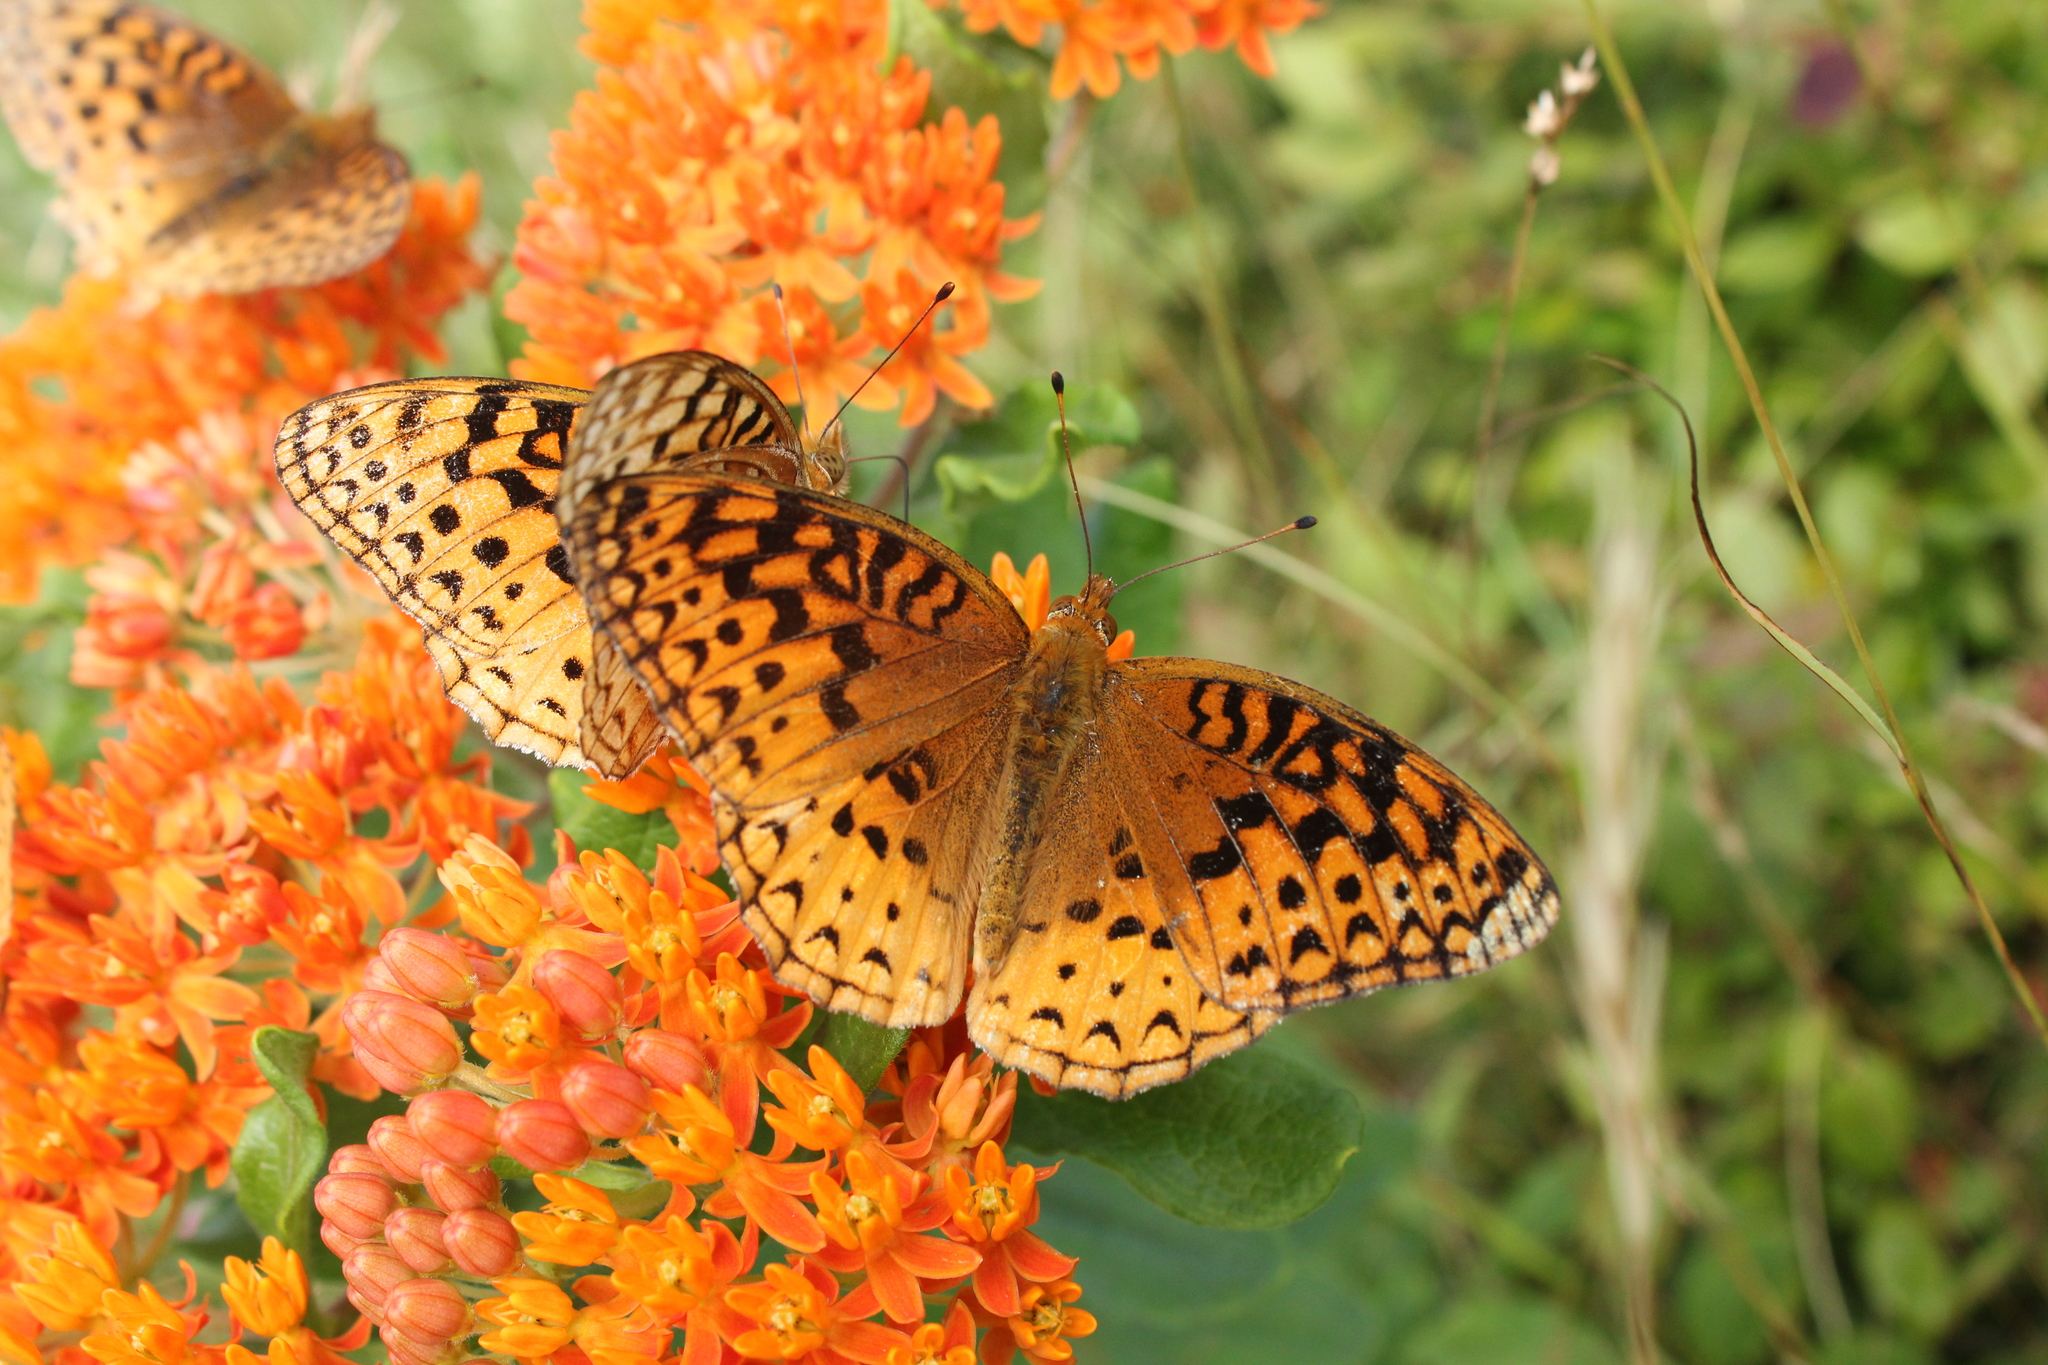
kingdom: Animalia
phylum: Arthropoda
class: Insecta
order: Lepidoptera
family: Nymphalidae
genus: Speyeria
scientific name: Speyeria aphrodite
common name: Aphrodite friitllary
